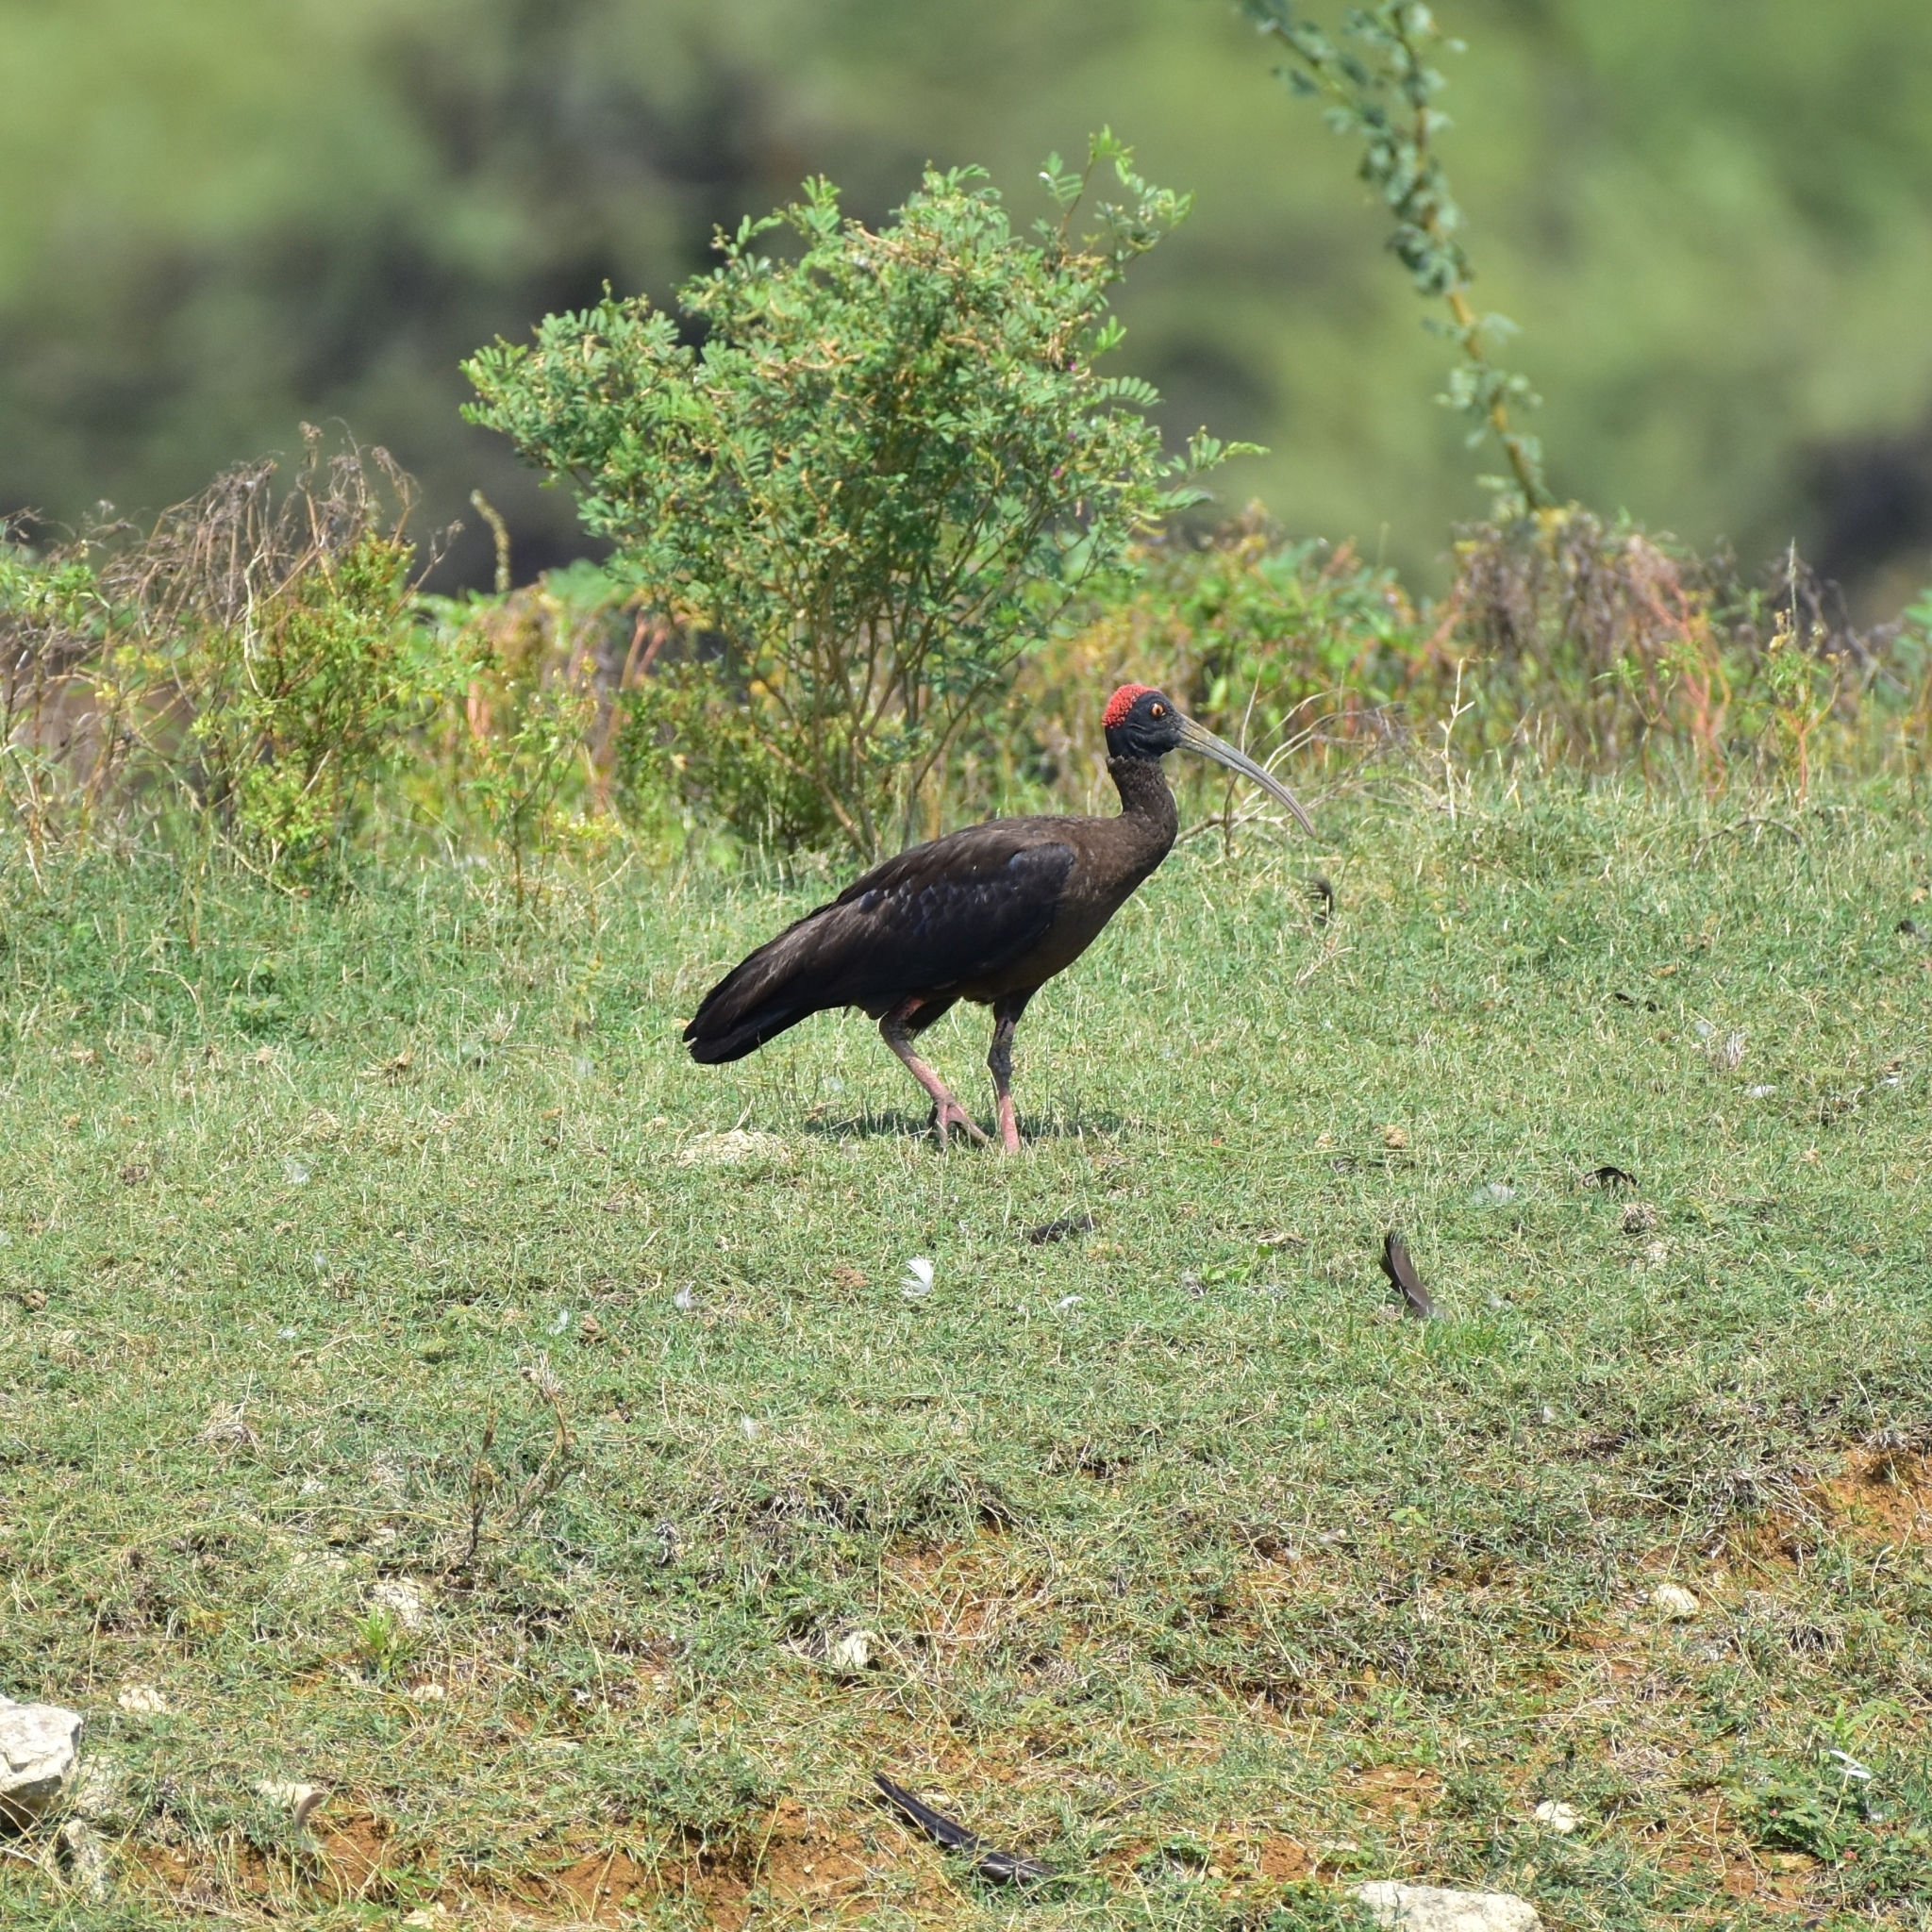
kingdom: Animalia
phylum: Chordata
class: Aves
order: Pelecaniformes
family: Threskiornithidae
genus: Pseudibis
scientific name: Pseudibis papillosa
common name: Red-naped ibis
